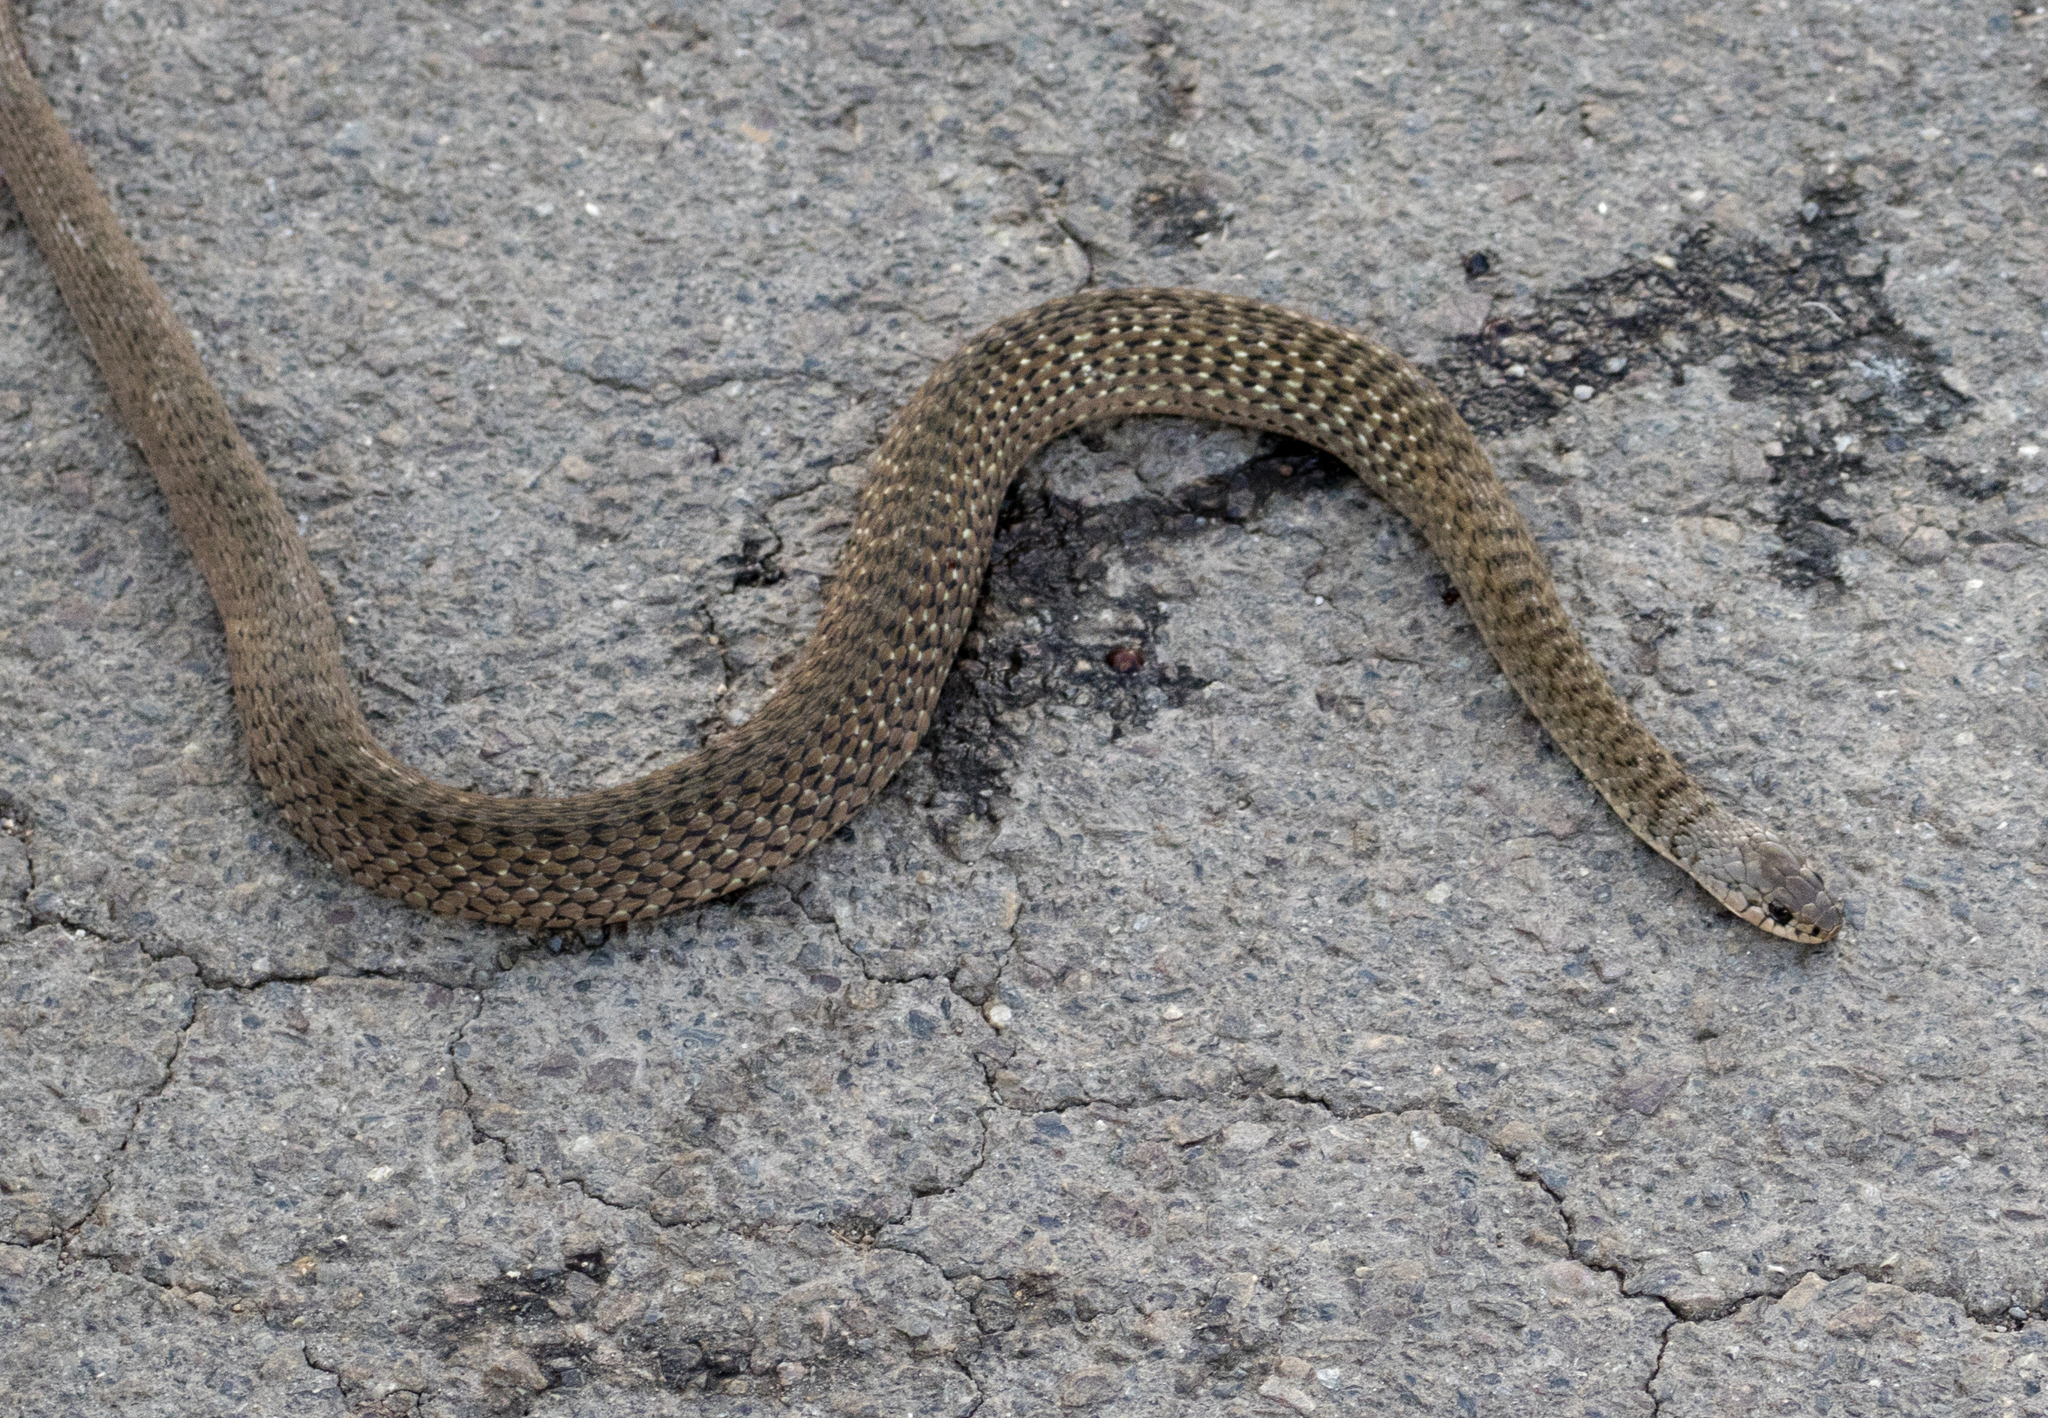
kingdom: Animalia
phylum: Chordata
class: Squamata
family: Colubridae
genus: Tropidonophis
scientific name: Tropidonophis mairii
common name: Common keelback
